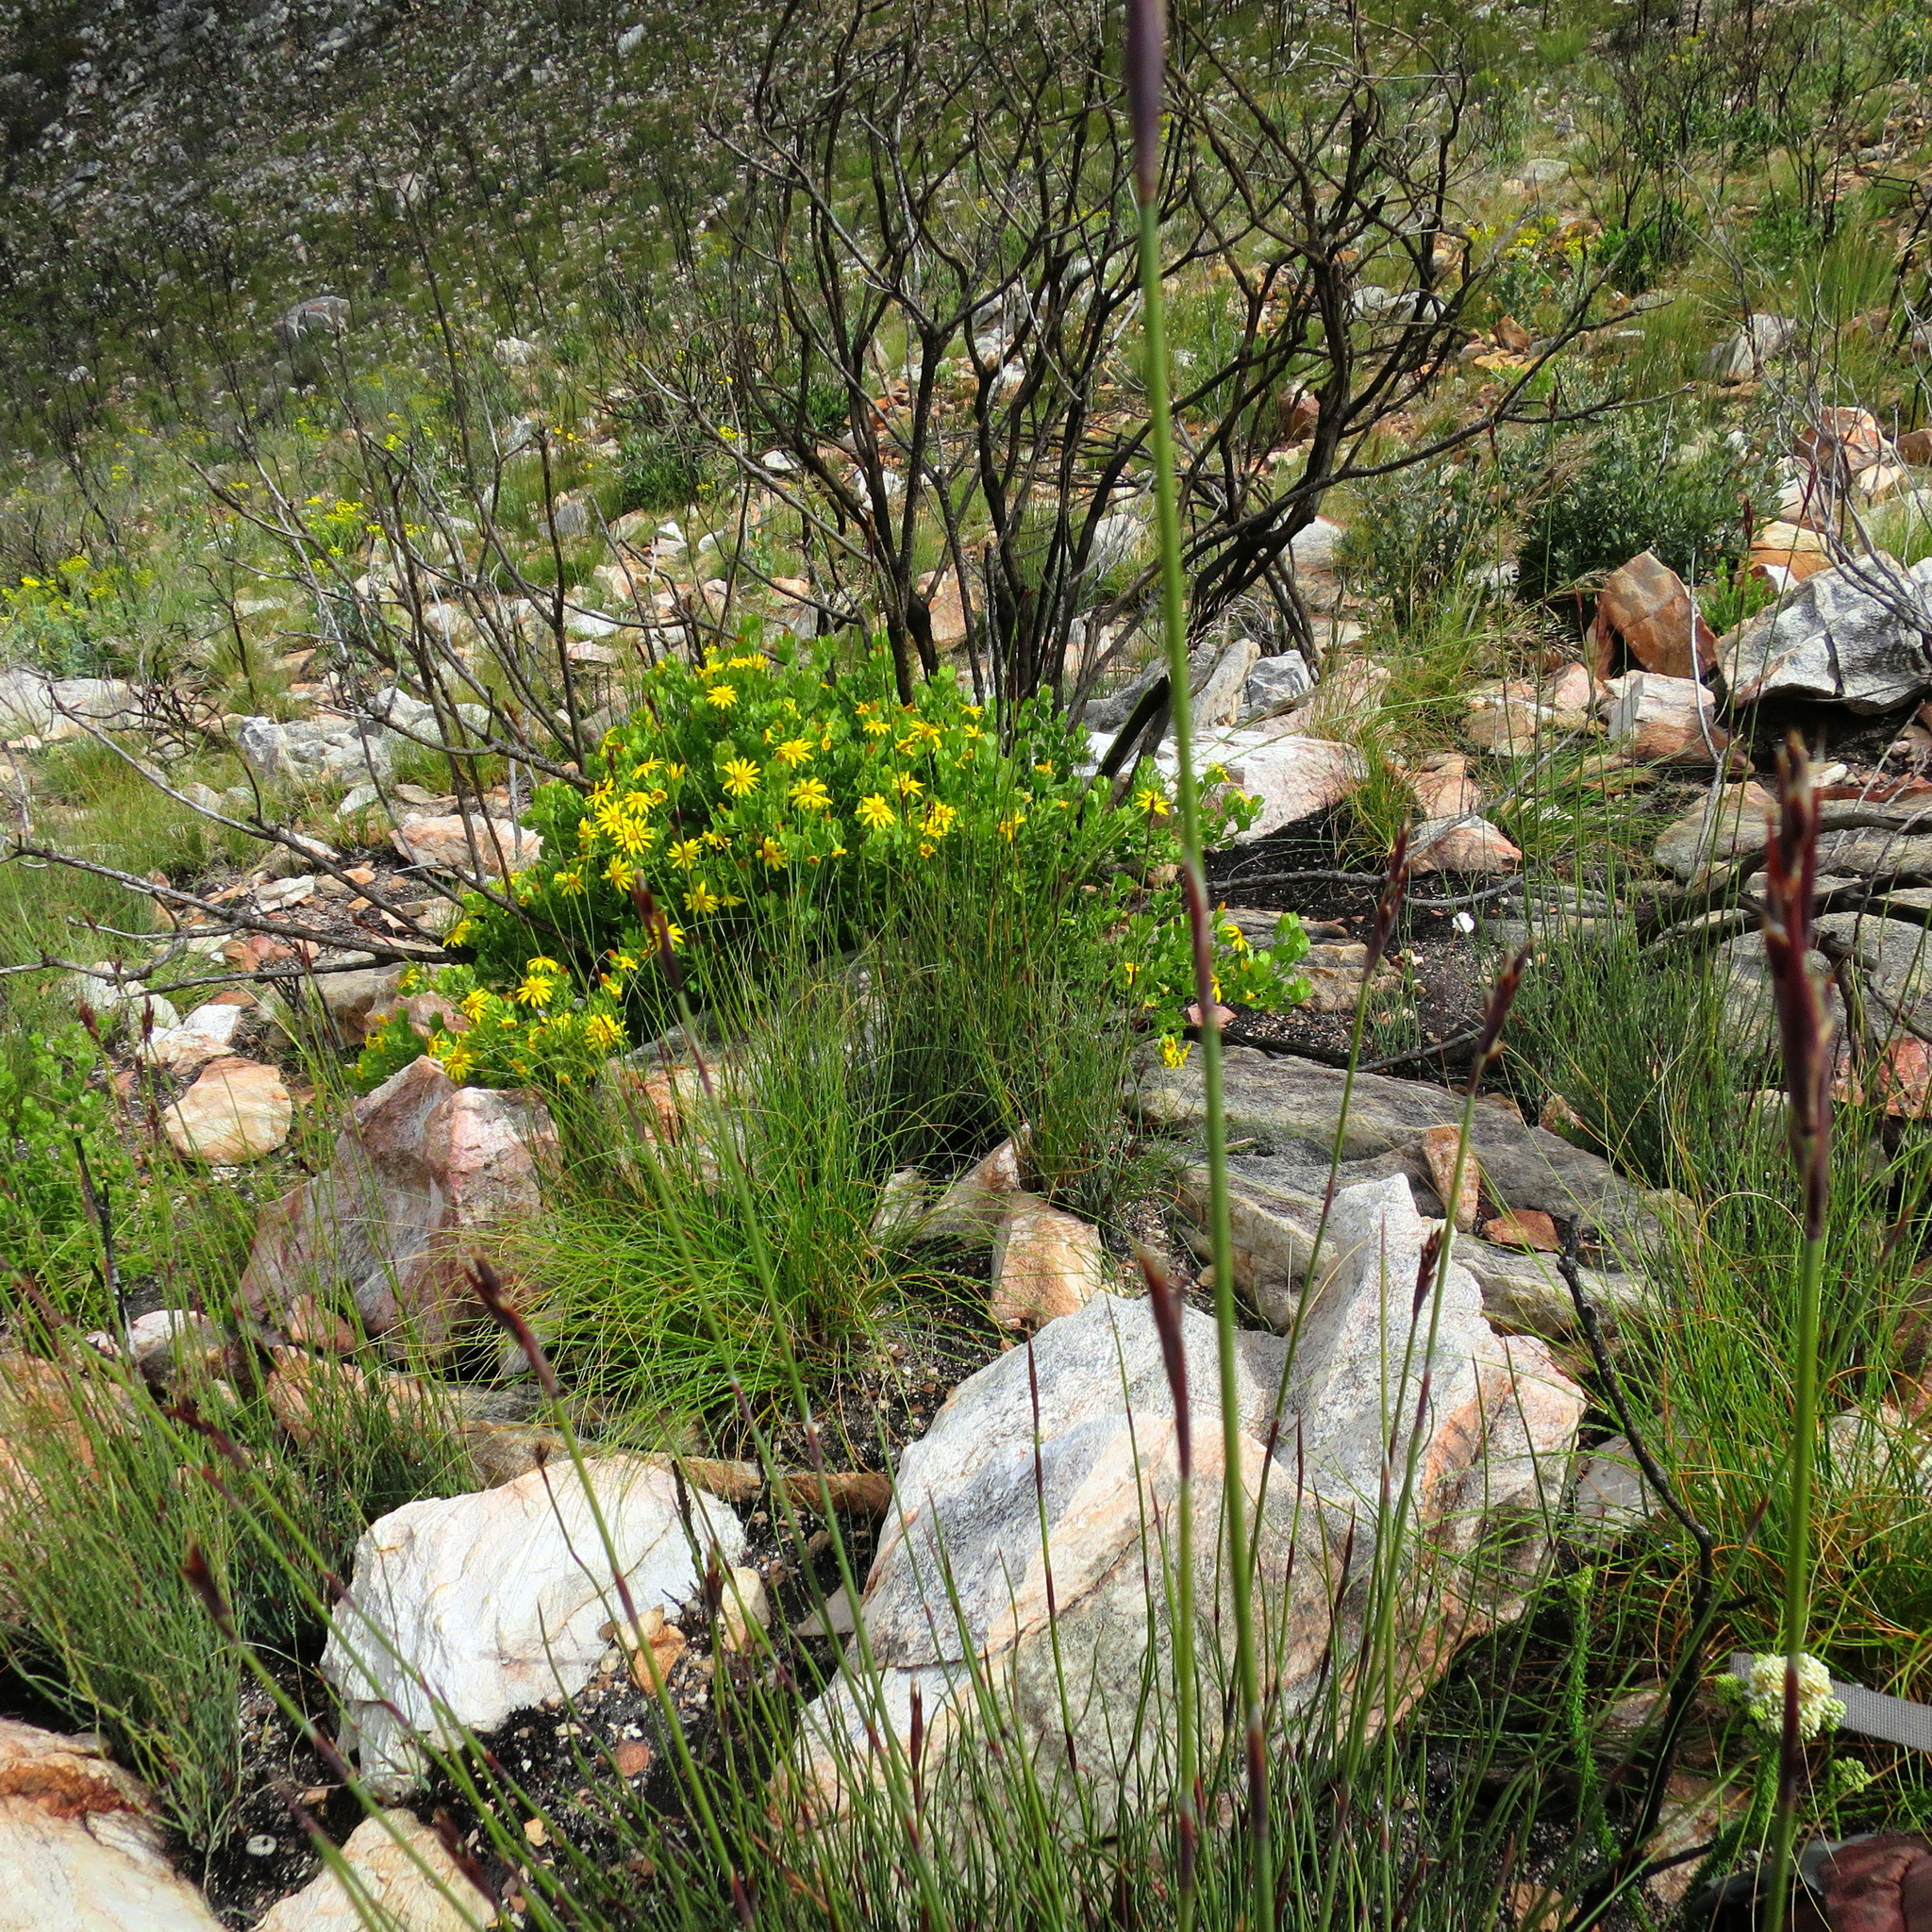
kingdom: Plantae
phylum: Tracheophyta
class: Magnoliopsida
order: Asterales
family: Asteraceae
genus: Osteospermum
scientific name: Osteospermum moniliferum
